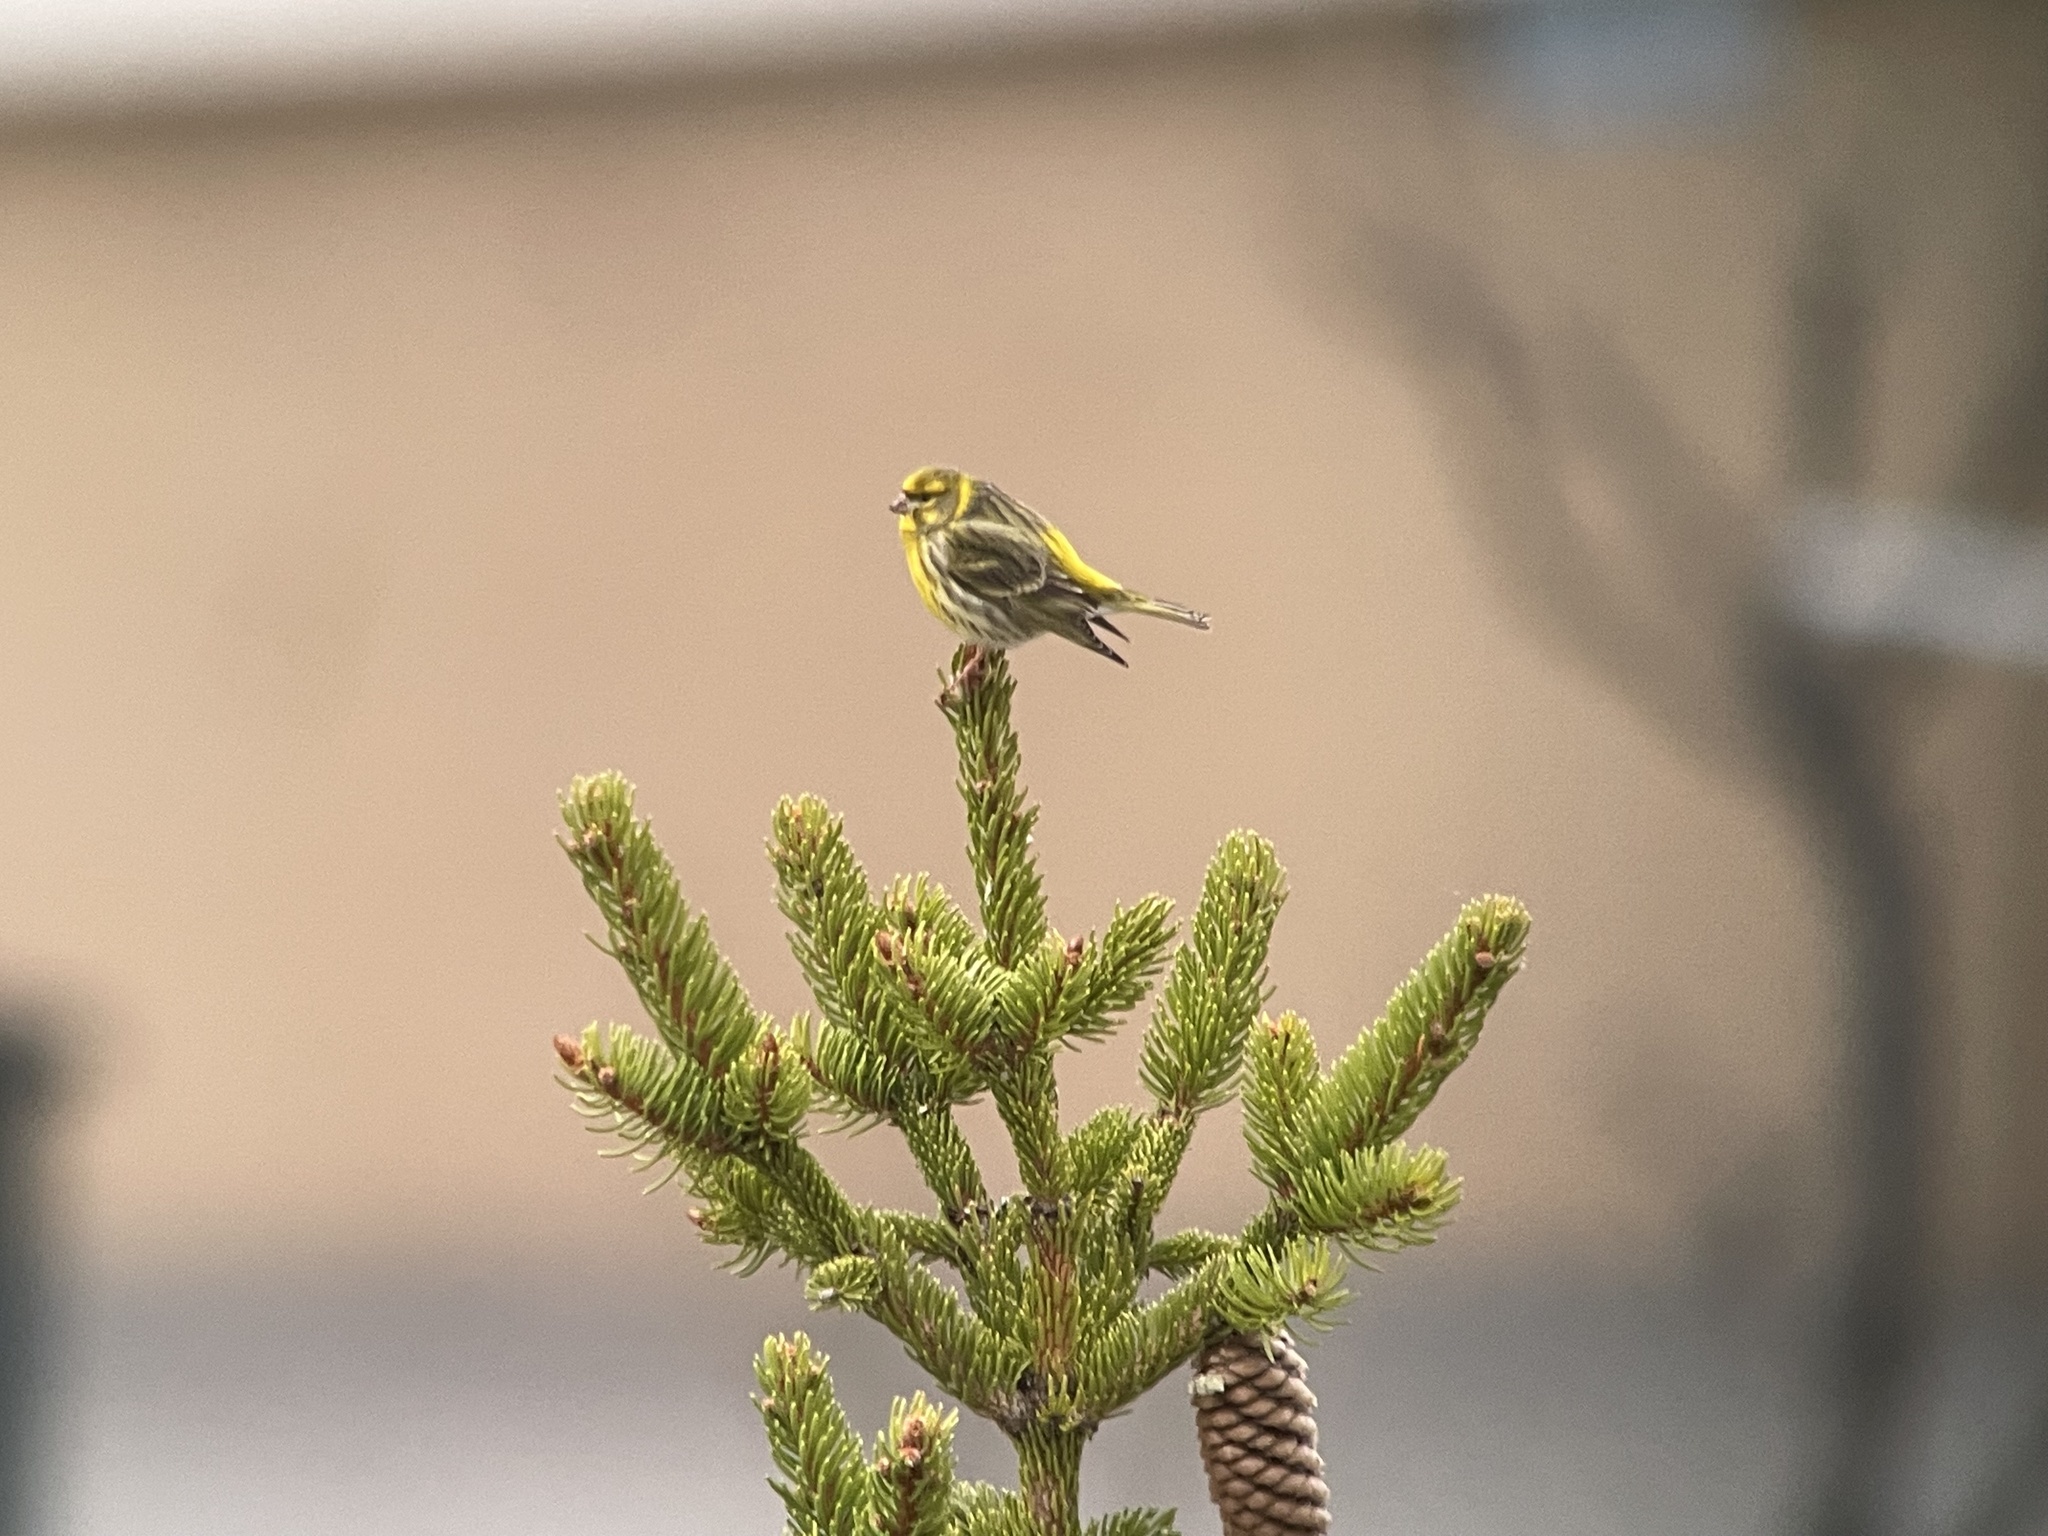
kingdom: Animalia
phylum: Chordata
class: Aves
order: Passeriformes
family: Fringillidae
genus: Serinus
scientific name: Serinus serinus
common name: European serin
